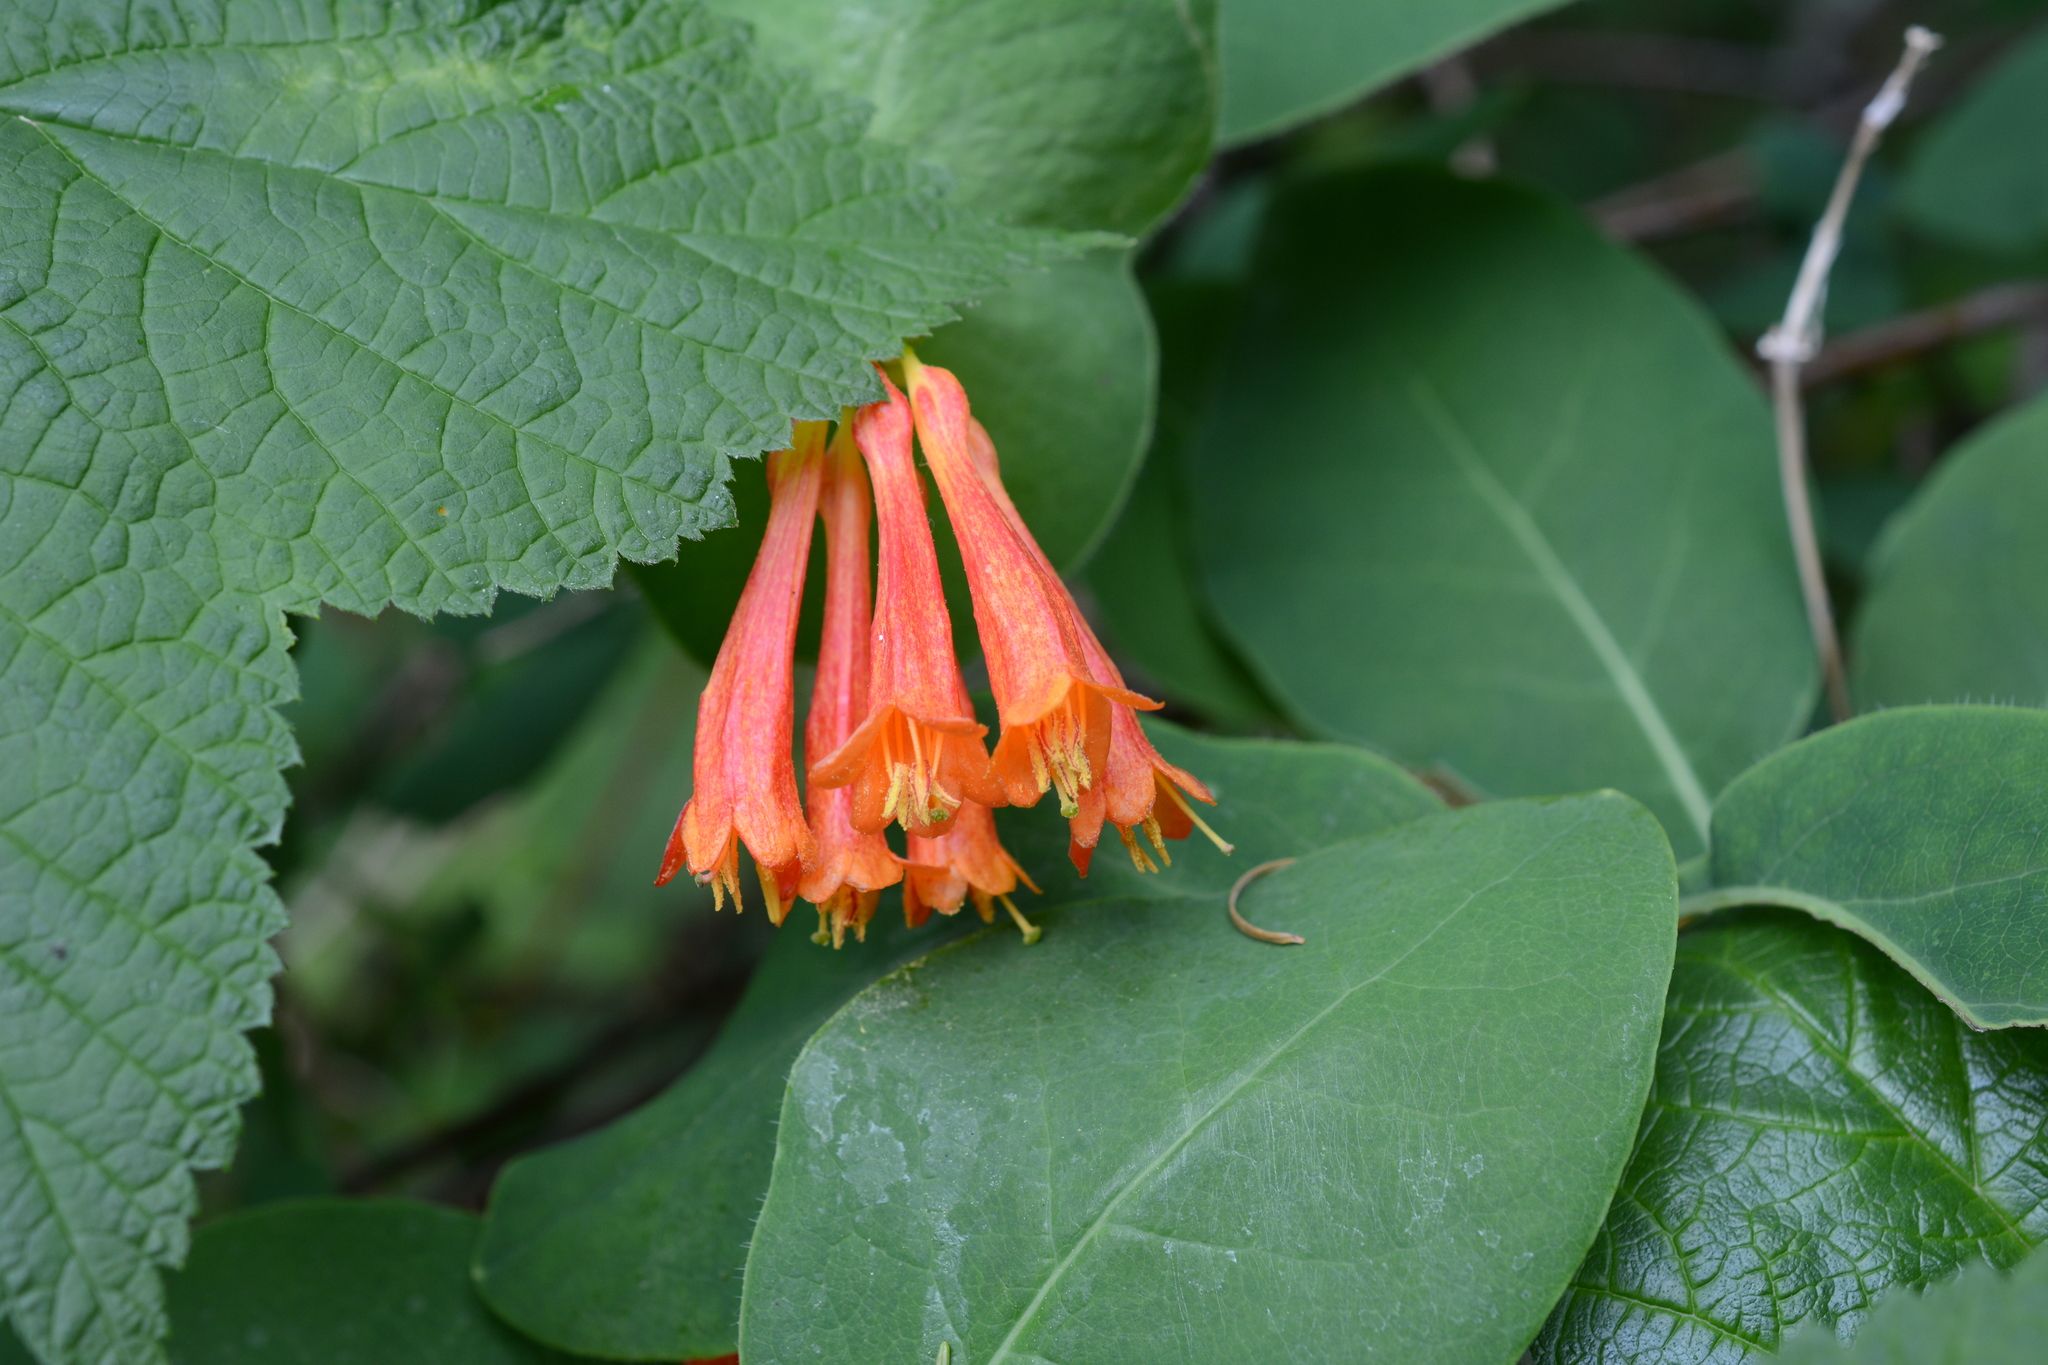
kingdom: Plantae
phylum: Tracheophyta
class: Magnoliopsida
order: Dipsacales
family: Caprifoliaceae
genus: Lonicera
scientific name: Lonicera ciliosa
